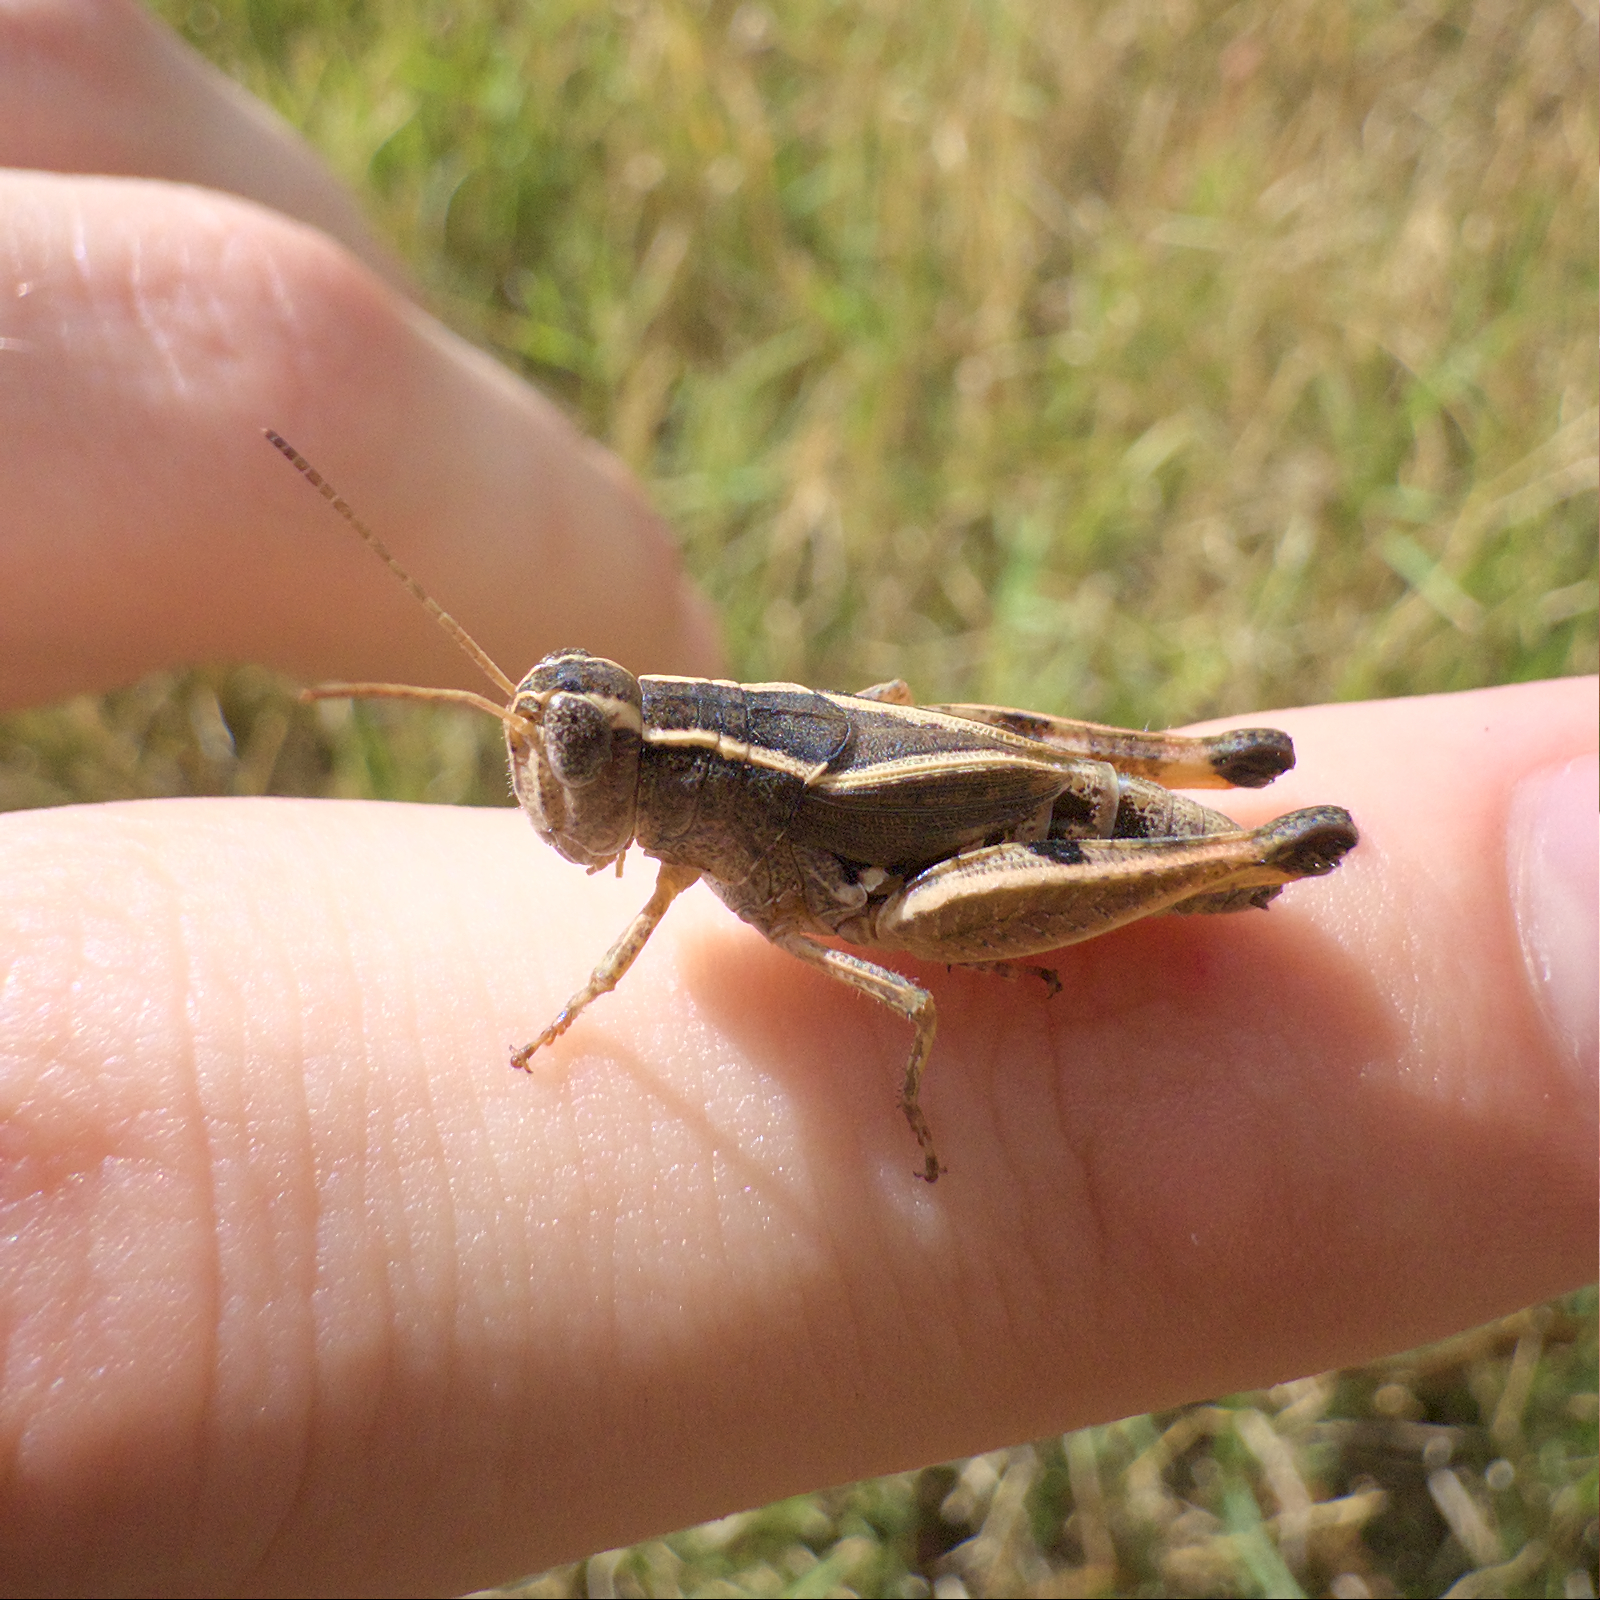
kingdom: Animalia
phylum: Arthropoda
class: Insecta
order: Orthoptera
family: Acrididae
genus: Phaulacridium
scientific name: Phaulacridium vittatum
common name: Wingless grasshopper
